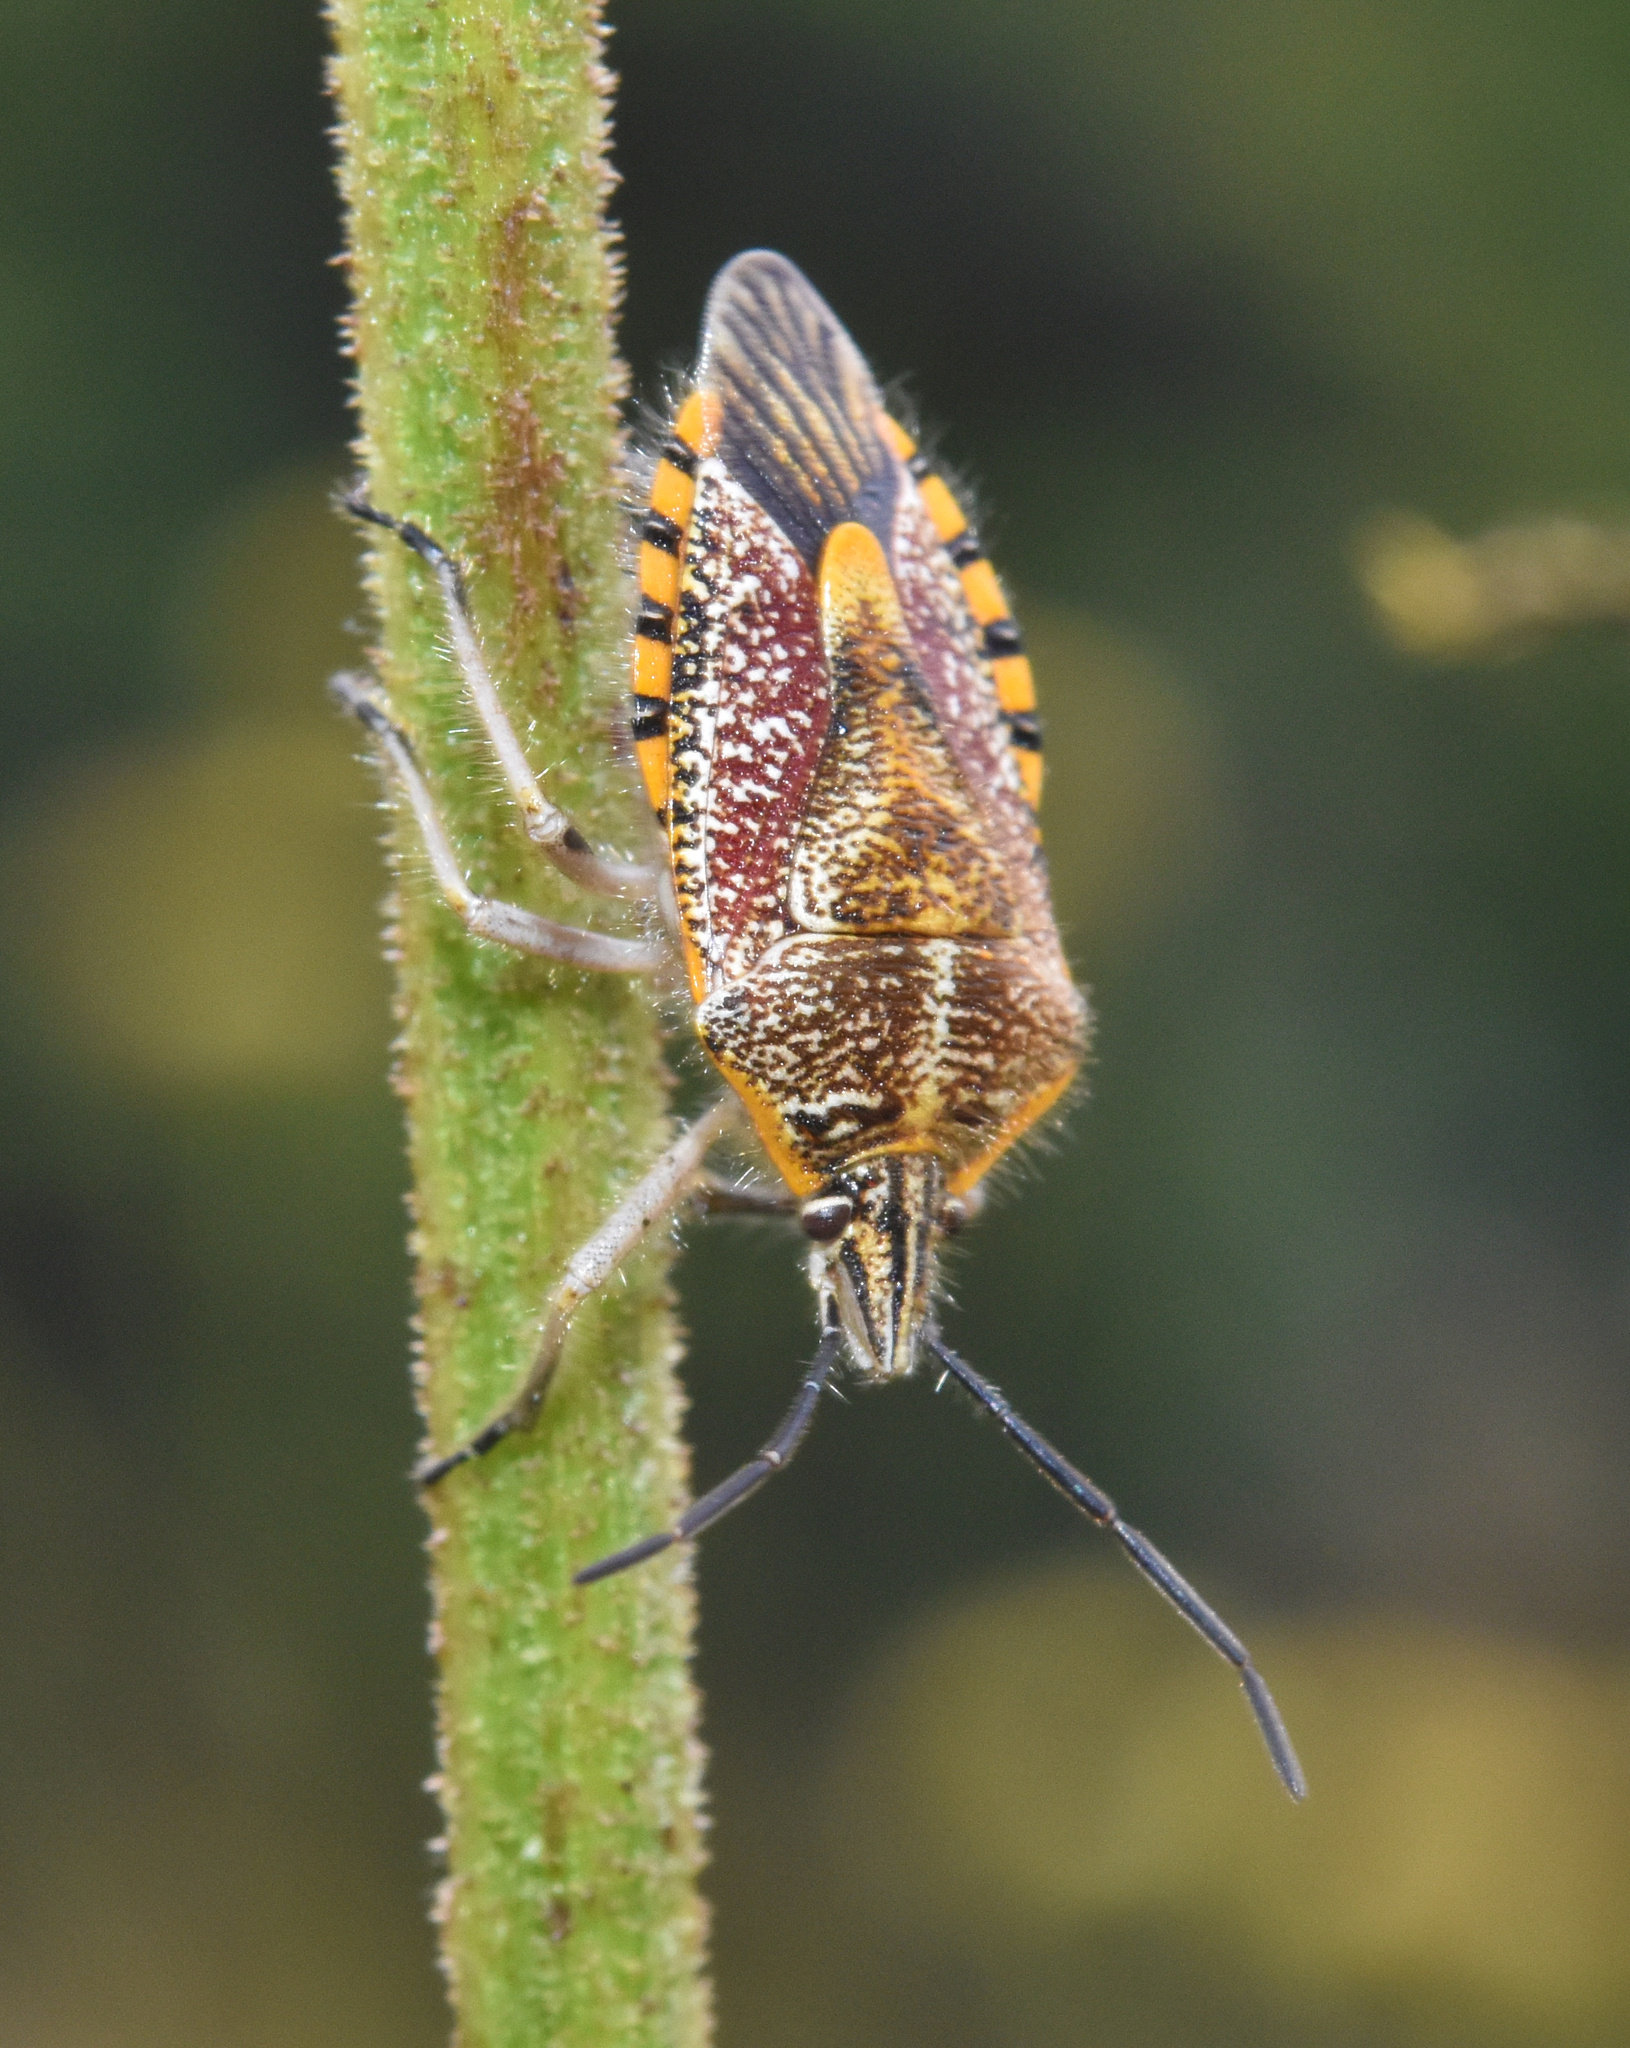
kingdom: Animalia
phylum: Arthropoda
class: Insecta
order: Hemiptera
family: Pentatomidae
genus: Agonoscelis
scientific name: Agonoscelis versicoloratus
